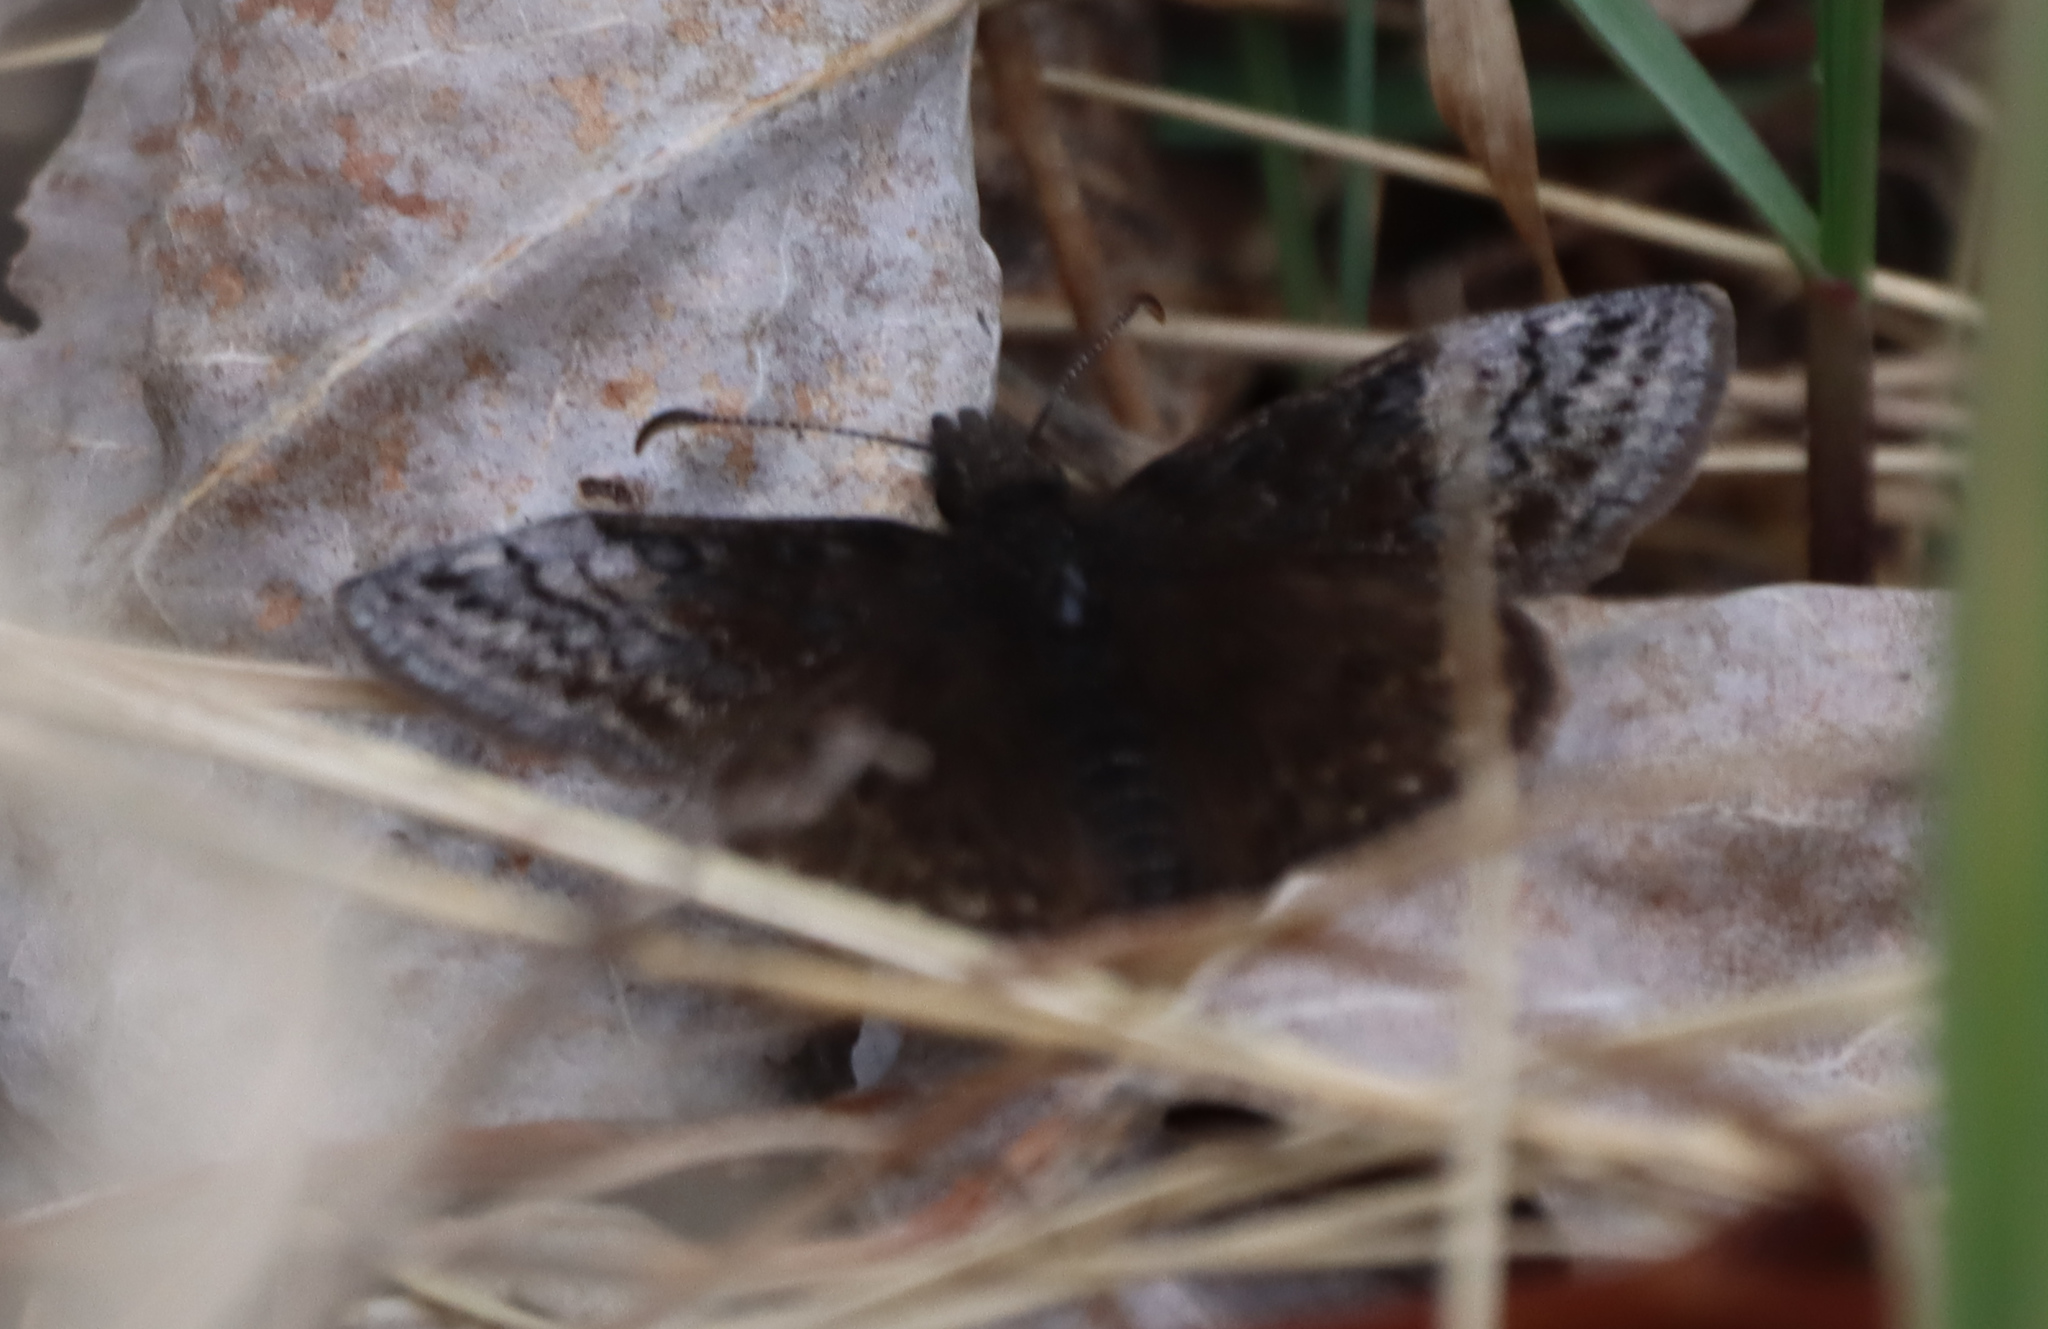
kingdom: Animalia
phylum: Arthropoda
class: Insecta
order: Lepidoptera
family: Hesperiidae
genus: Erynnis
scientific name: Erynnis icelus
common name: Dreamy duskywing
